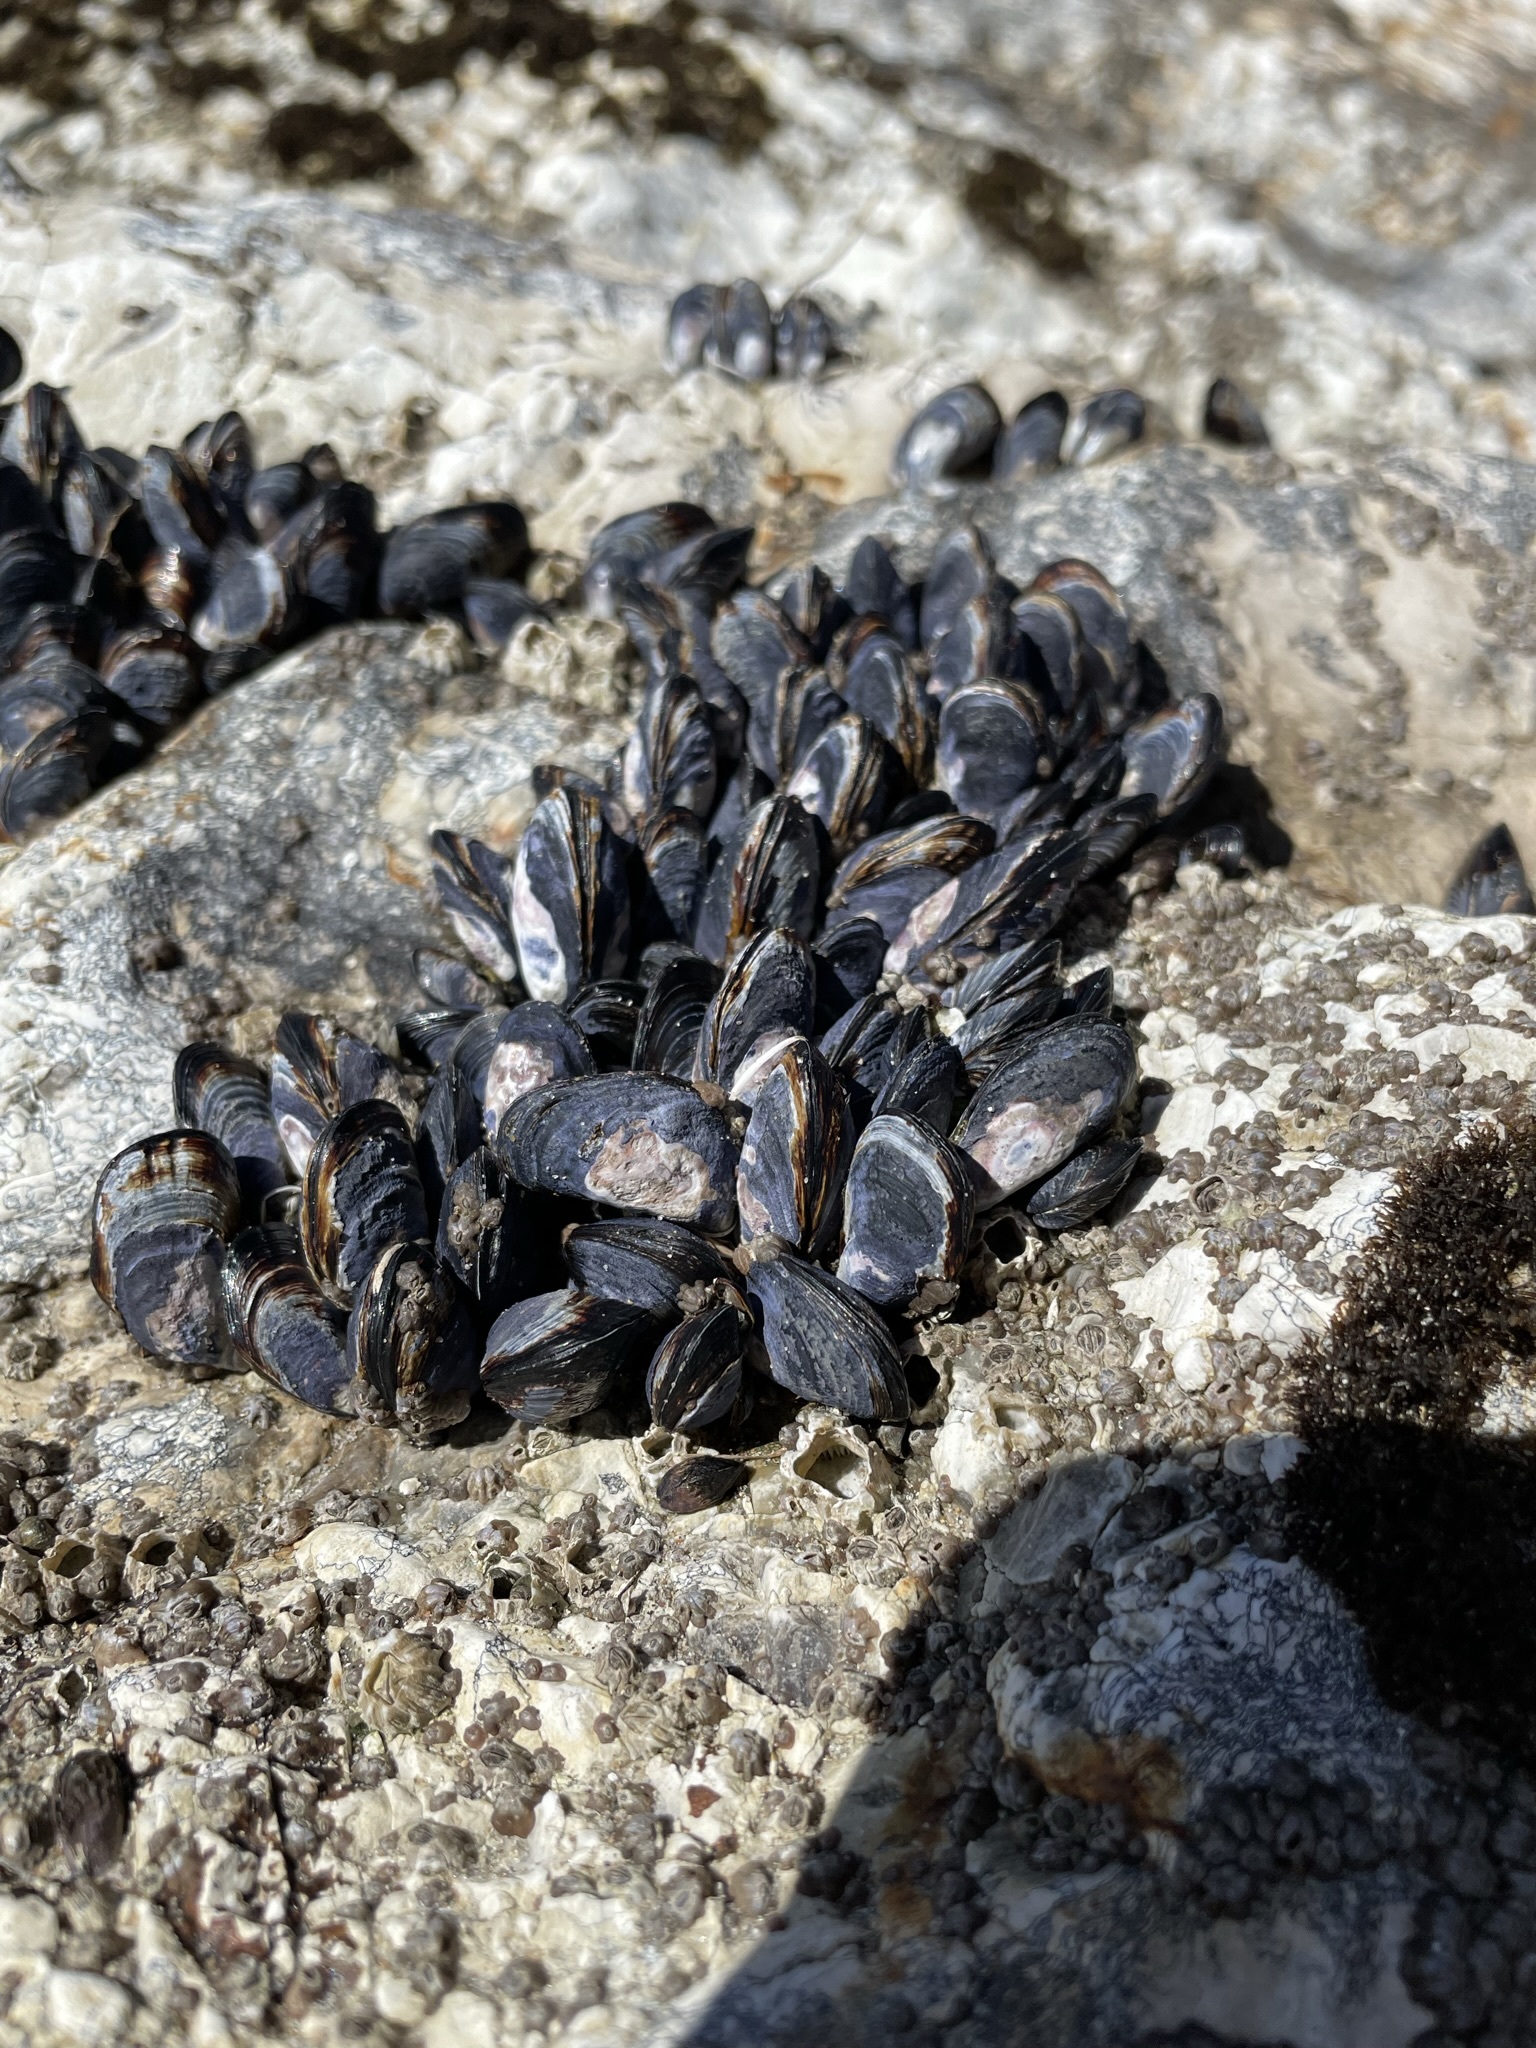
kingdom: Animalia
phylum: Mollusca
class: Bivalvia
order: Mytilida
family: Mytilidae
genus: Mytilus
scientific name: Mytilus californianus
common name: California mussel
